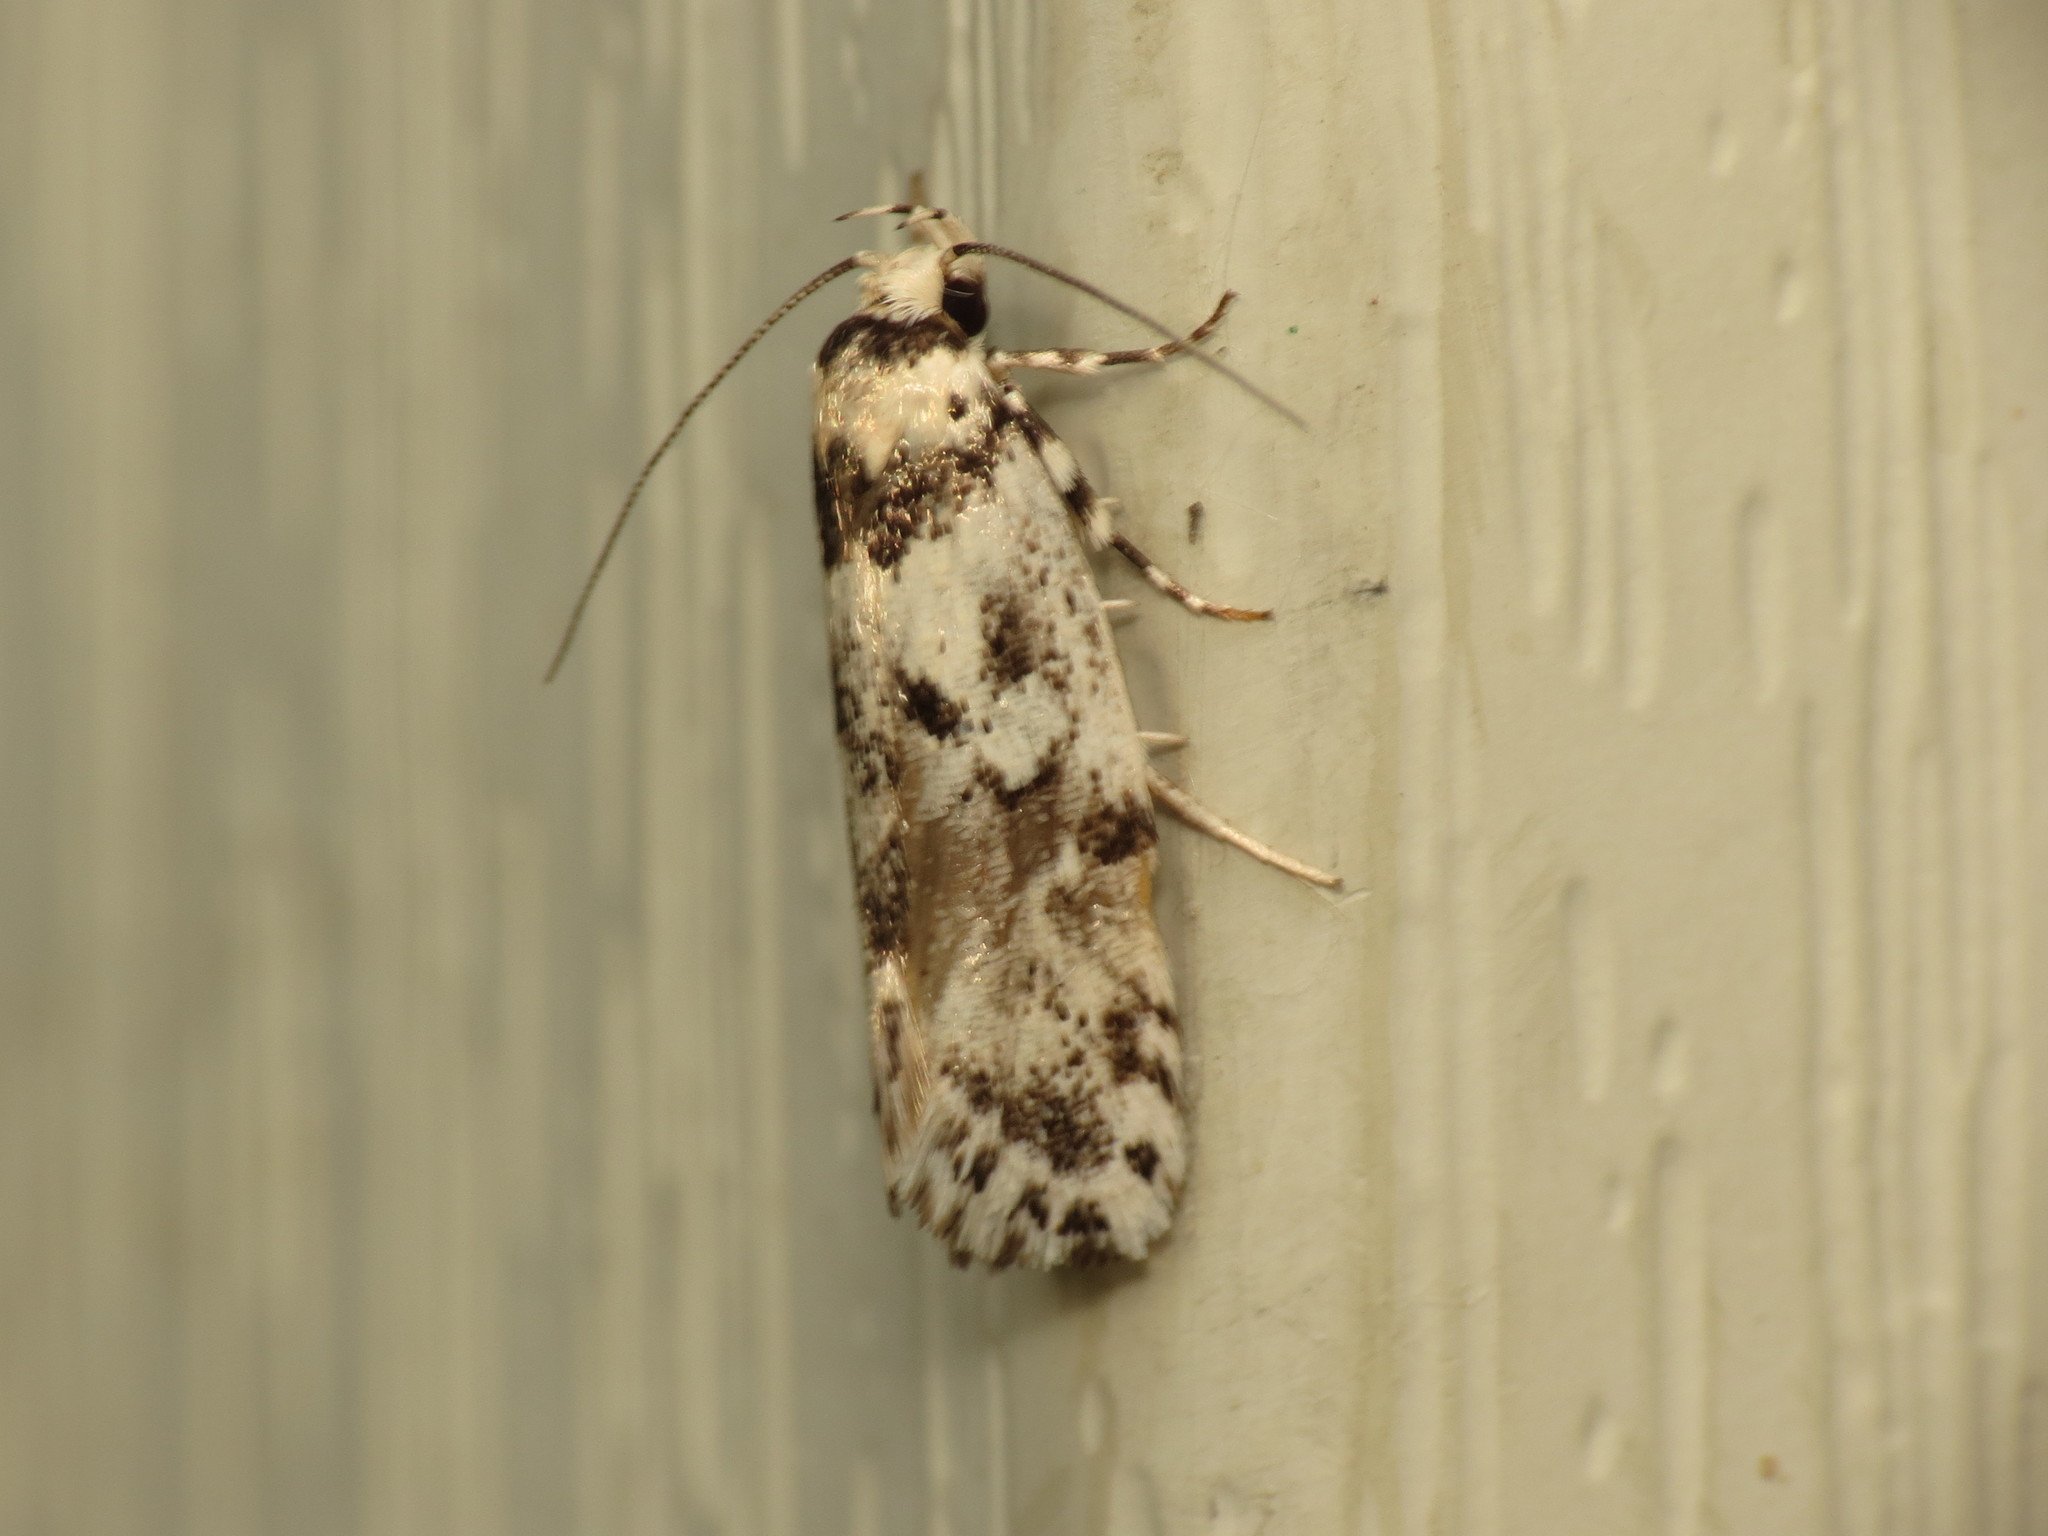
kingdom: Animalia
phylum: Arthropoda
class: Insecta
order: Lepidoptera
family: Xyloryctidae
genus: Lichenaula
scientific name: Lichenaula calligrapha
